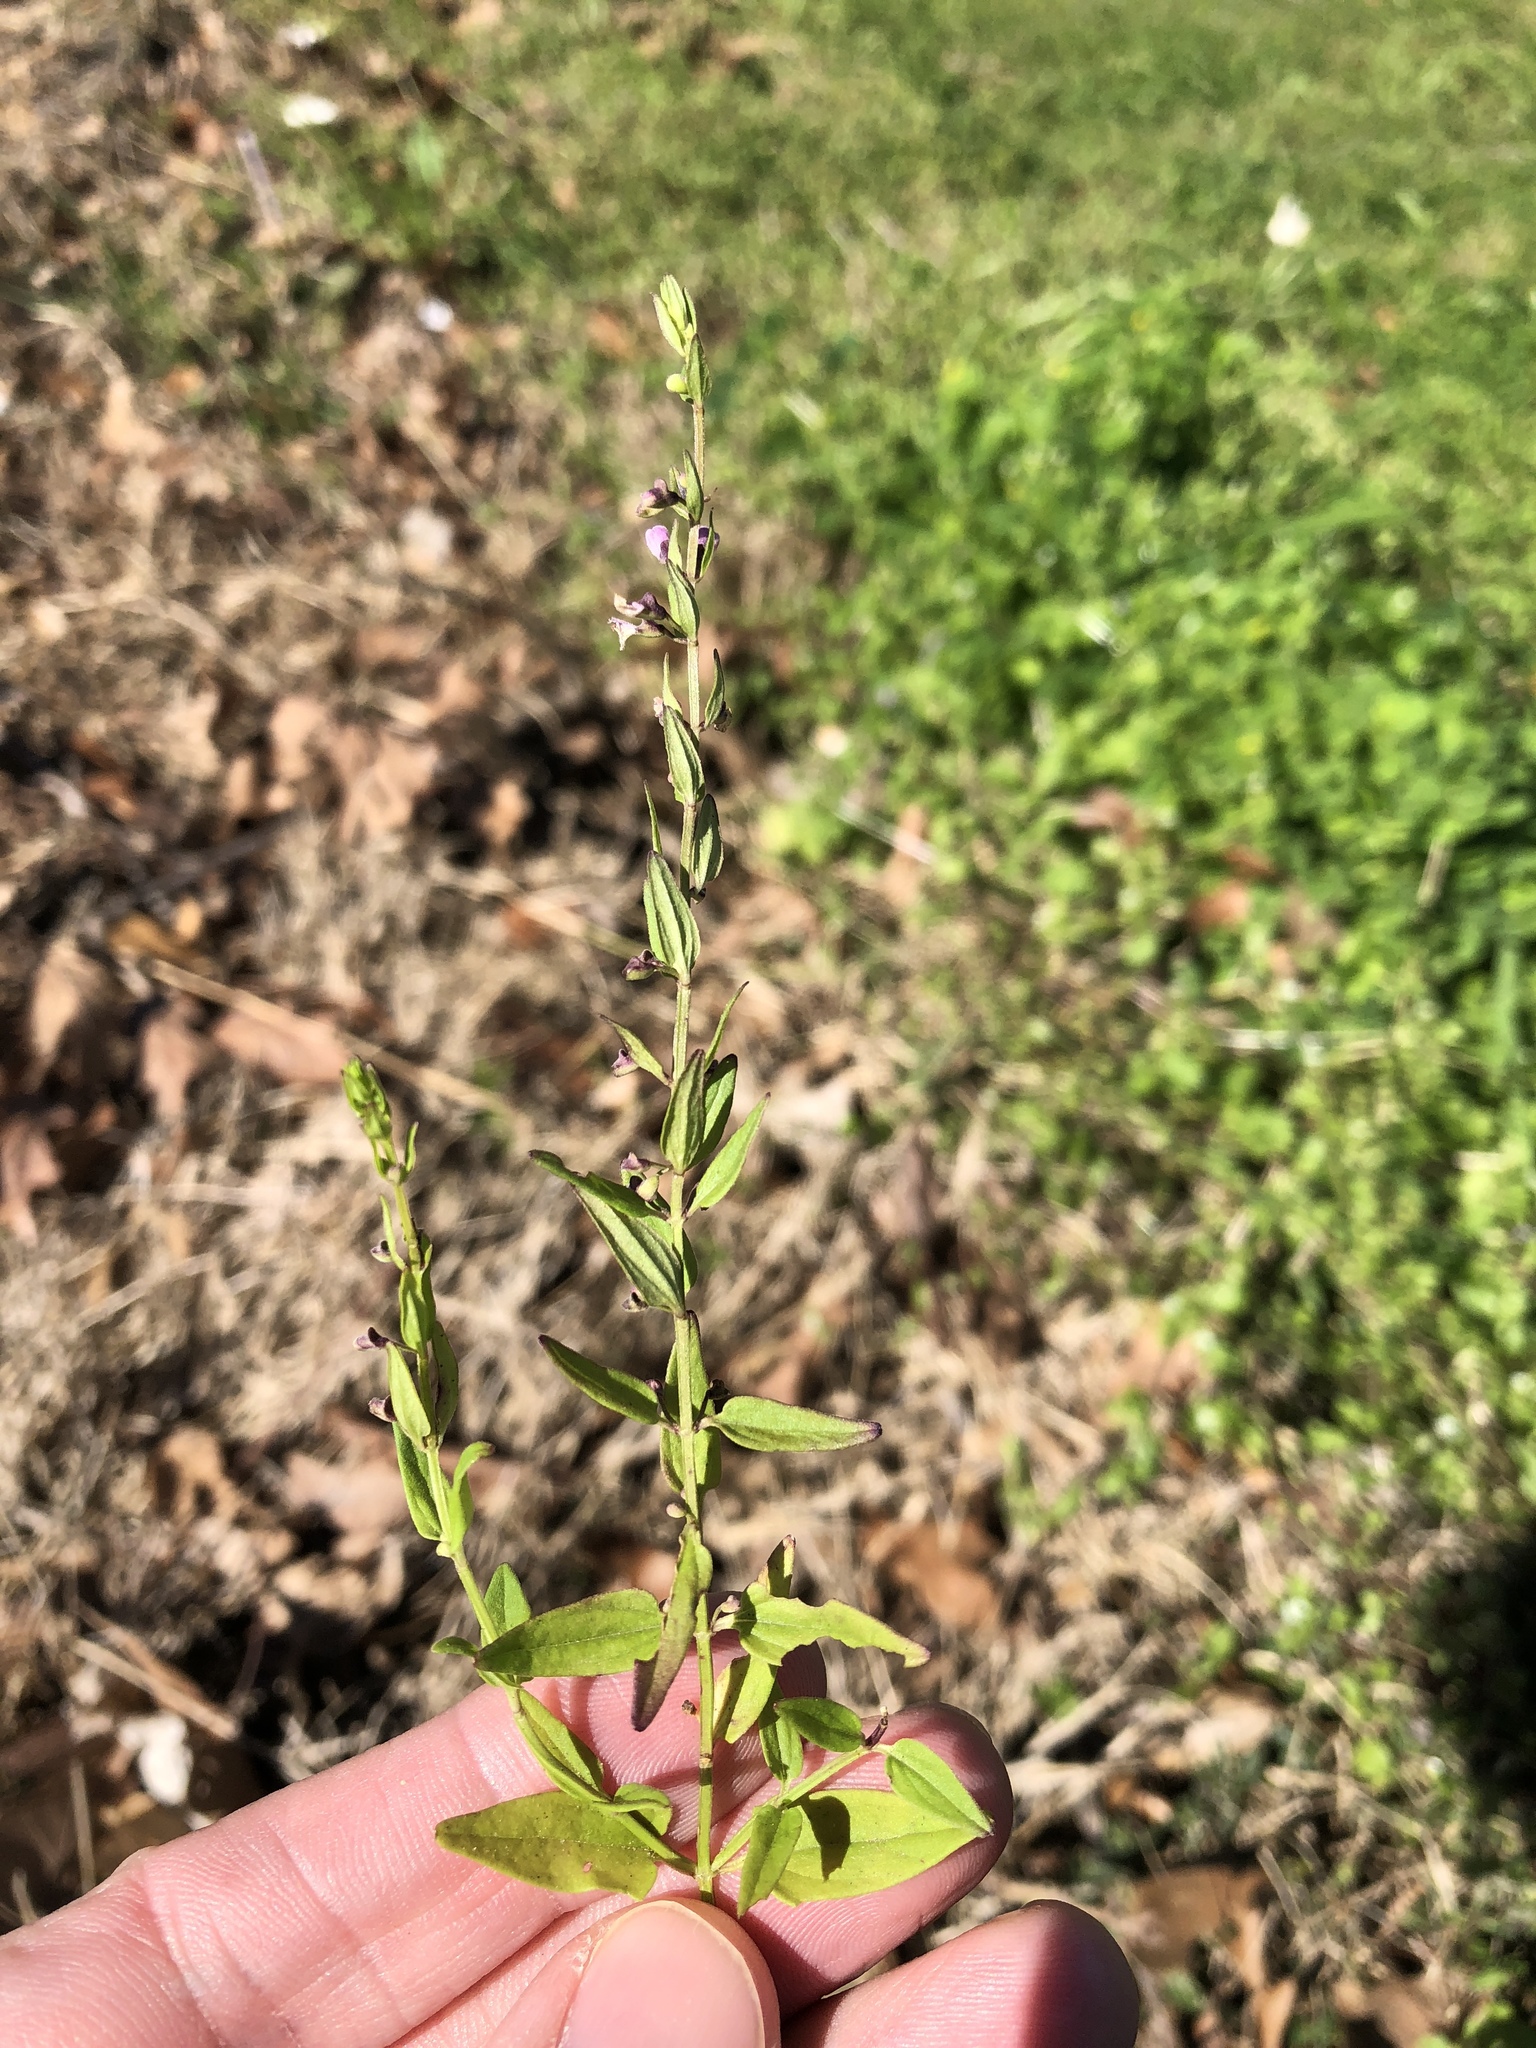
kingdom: Plantae
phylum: Tracheophyta
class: Magnoliopsida
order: Lamiales
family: Lamiaceae
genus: Scutellaria
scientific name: Scutellaria racemosa
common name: South american skullcap
